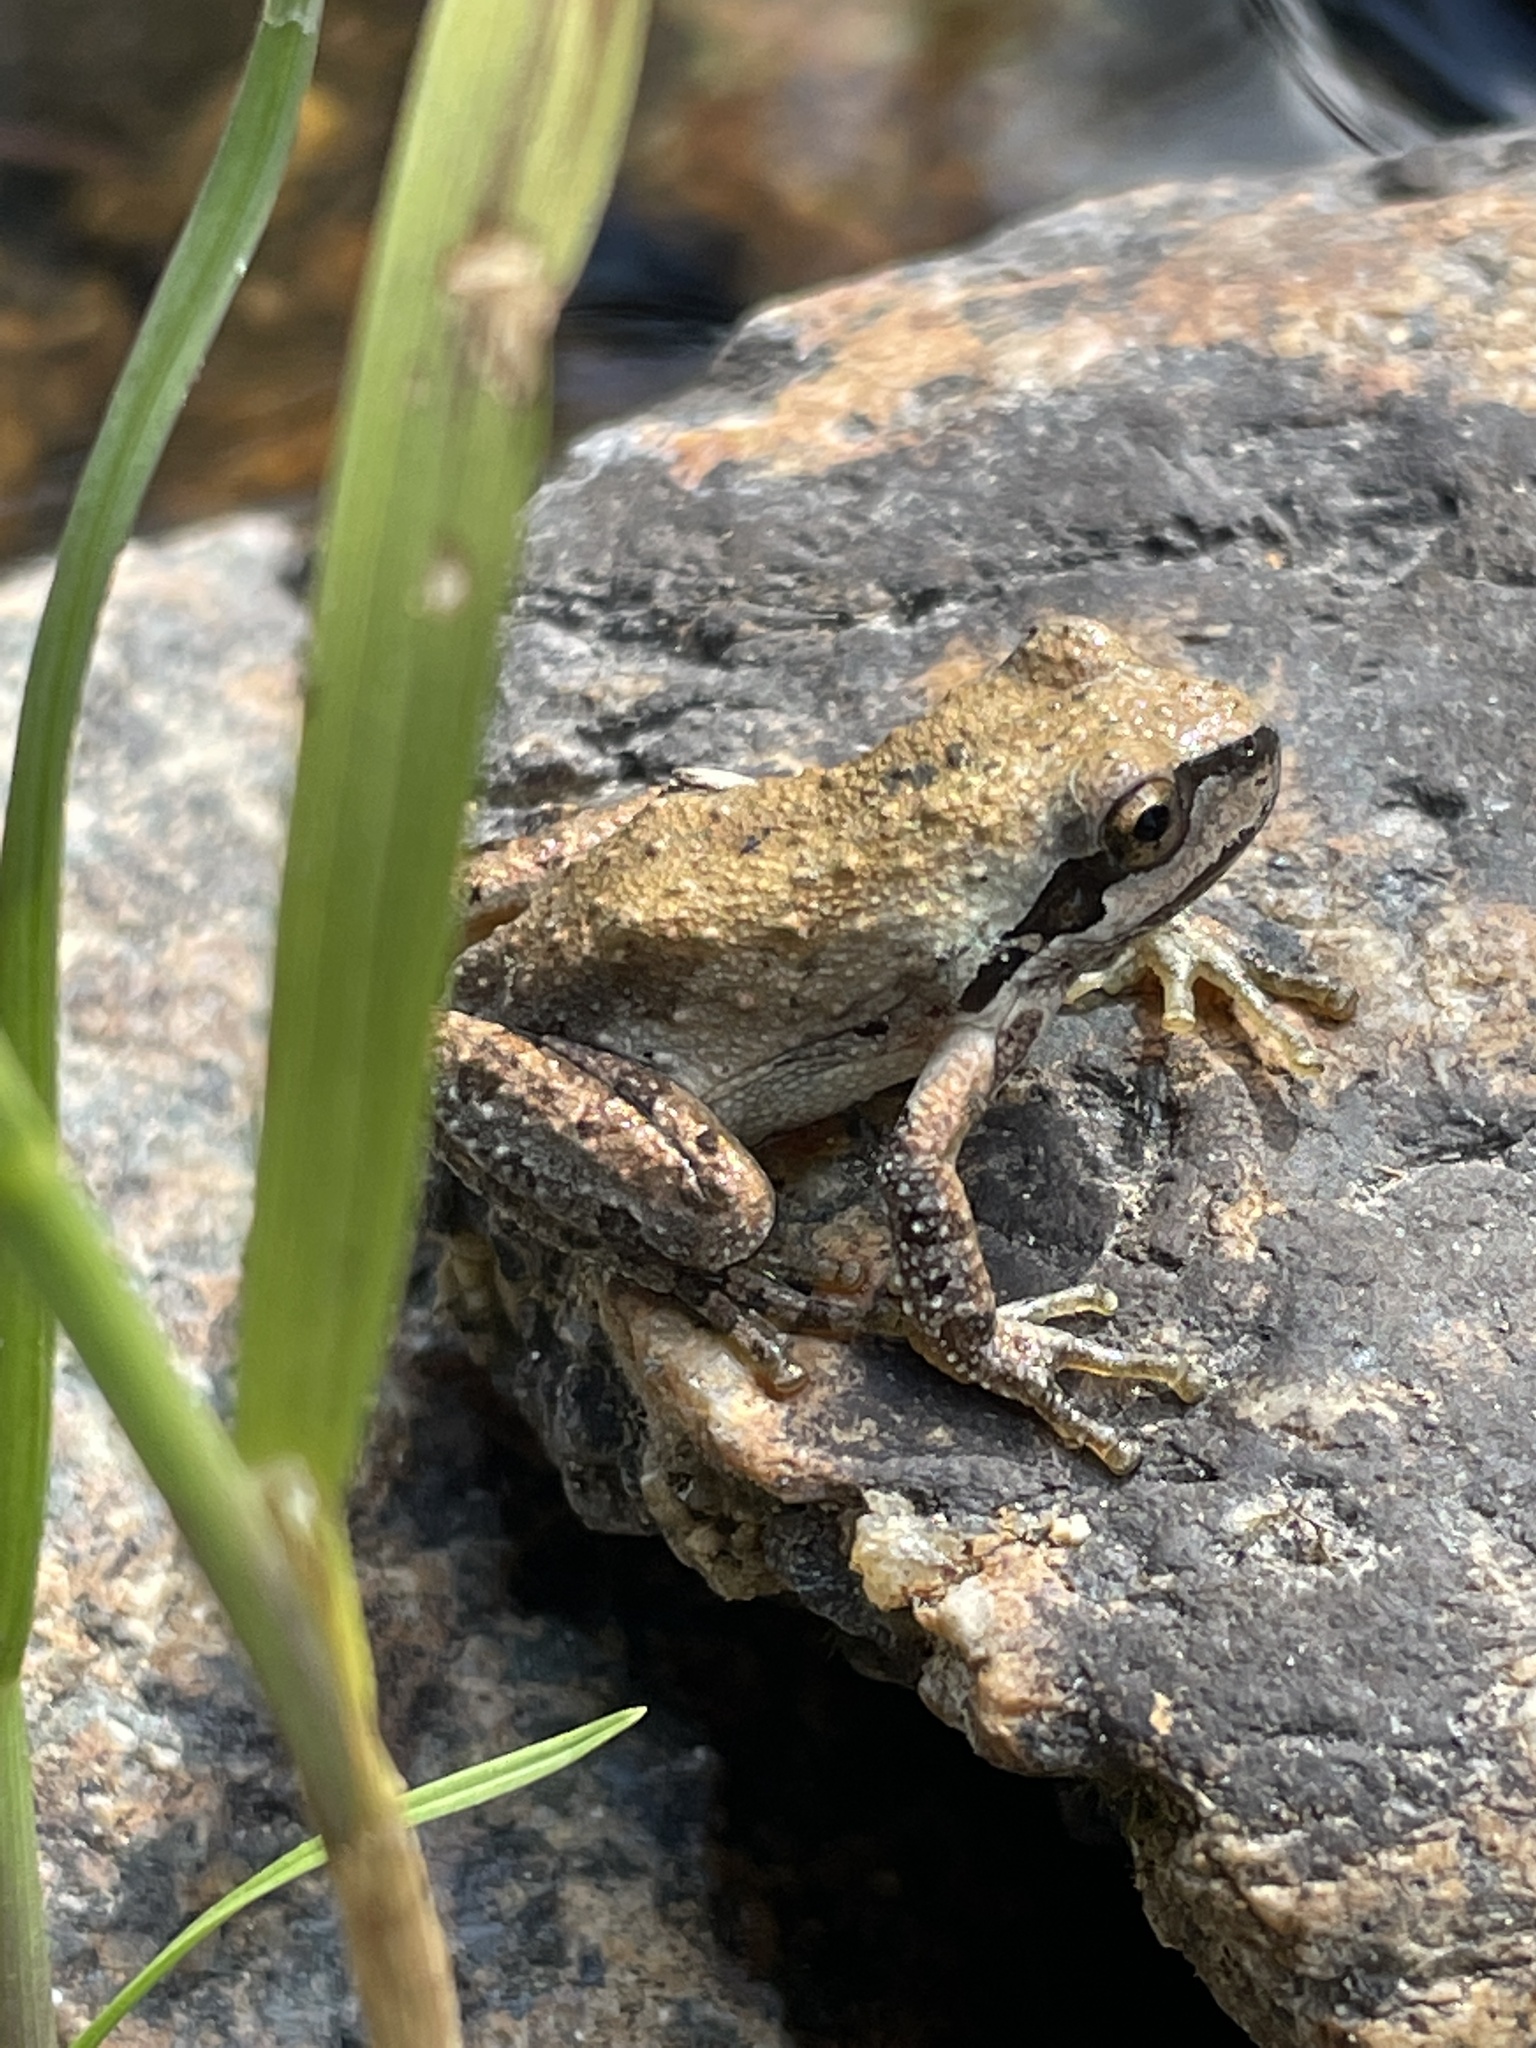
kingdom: Animalia
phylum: Chordata
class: Amphibia
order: Anura
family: Hylidae
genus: Pseudacris
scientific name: Pseudacris regilla
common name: Pacific chorus frog
